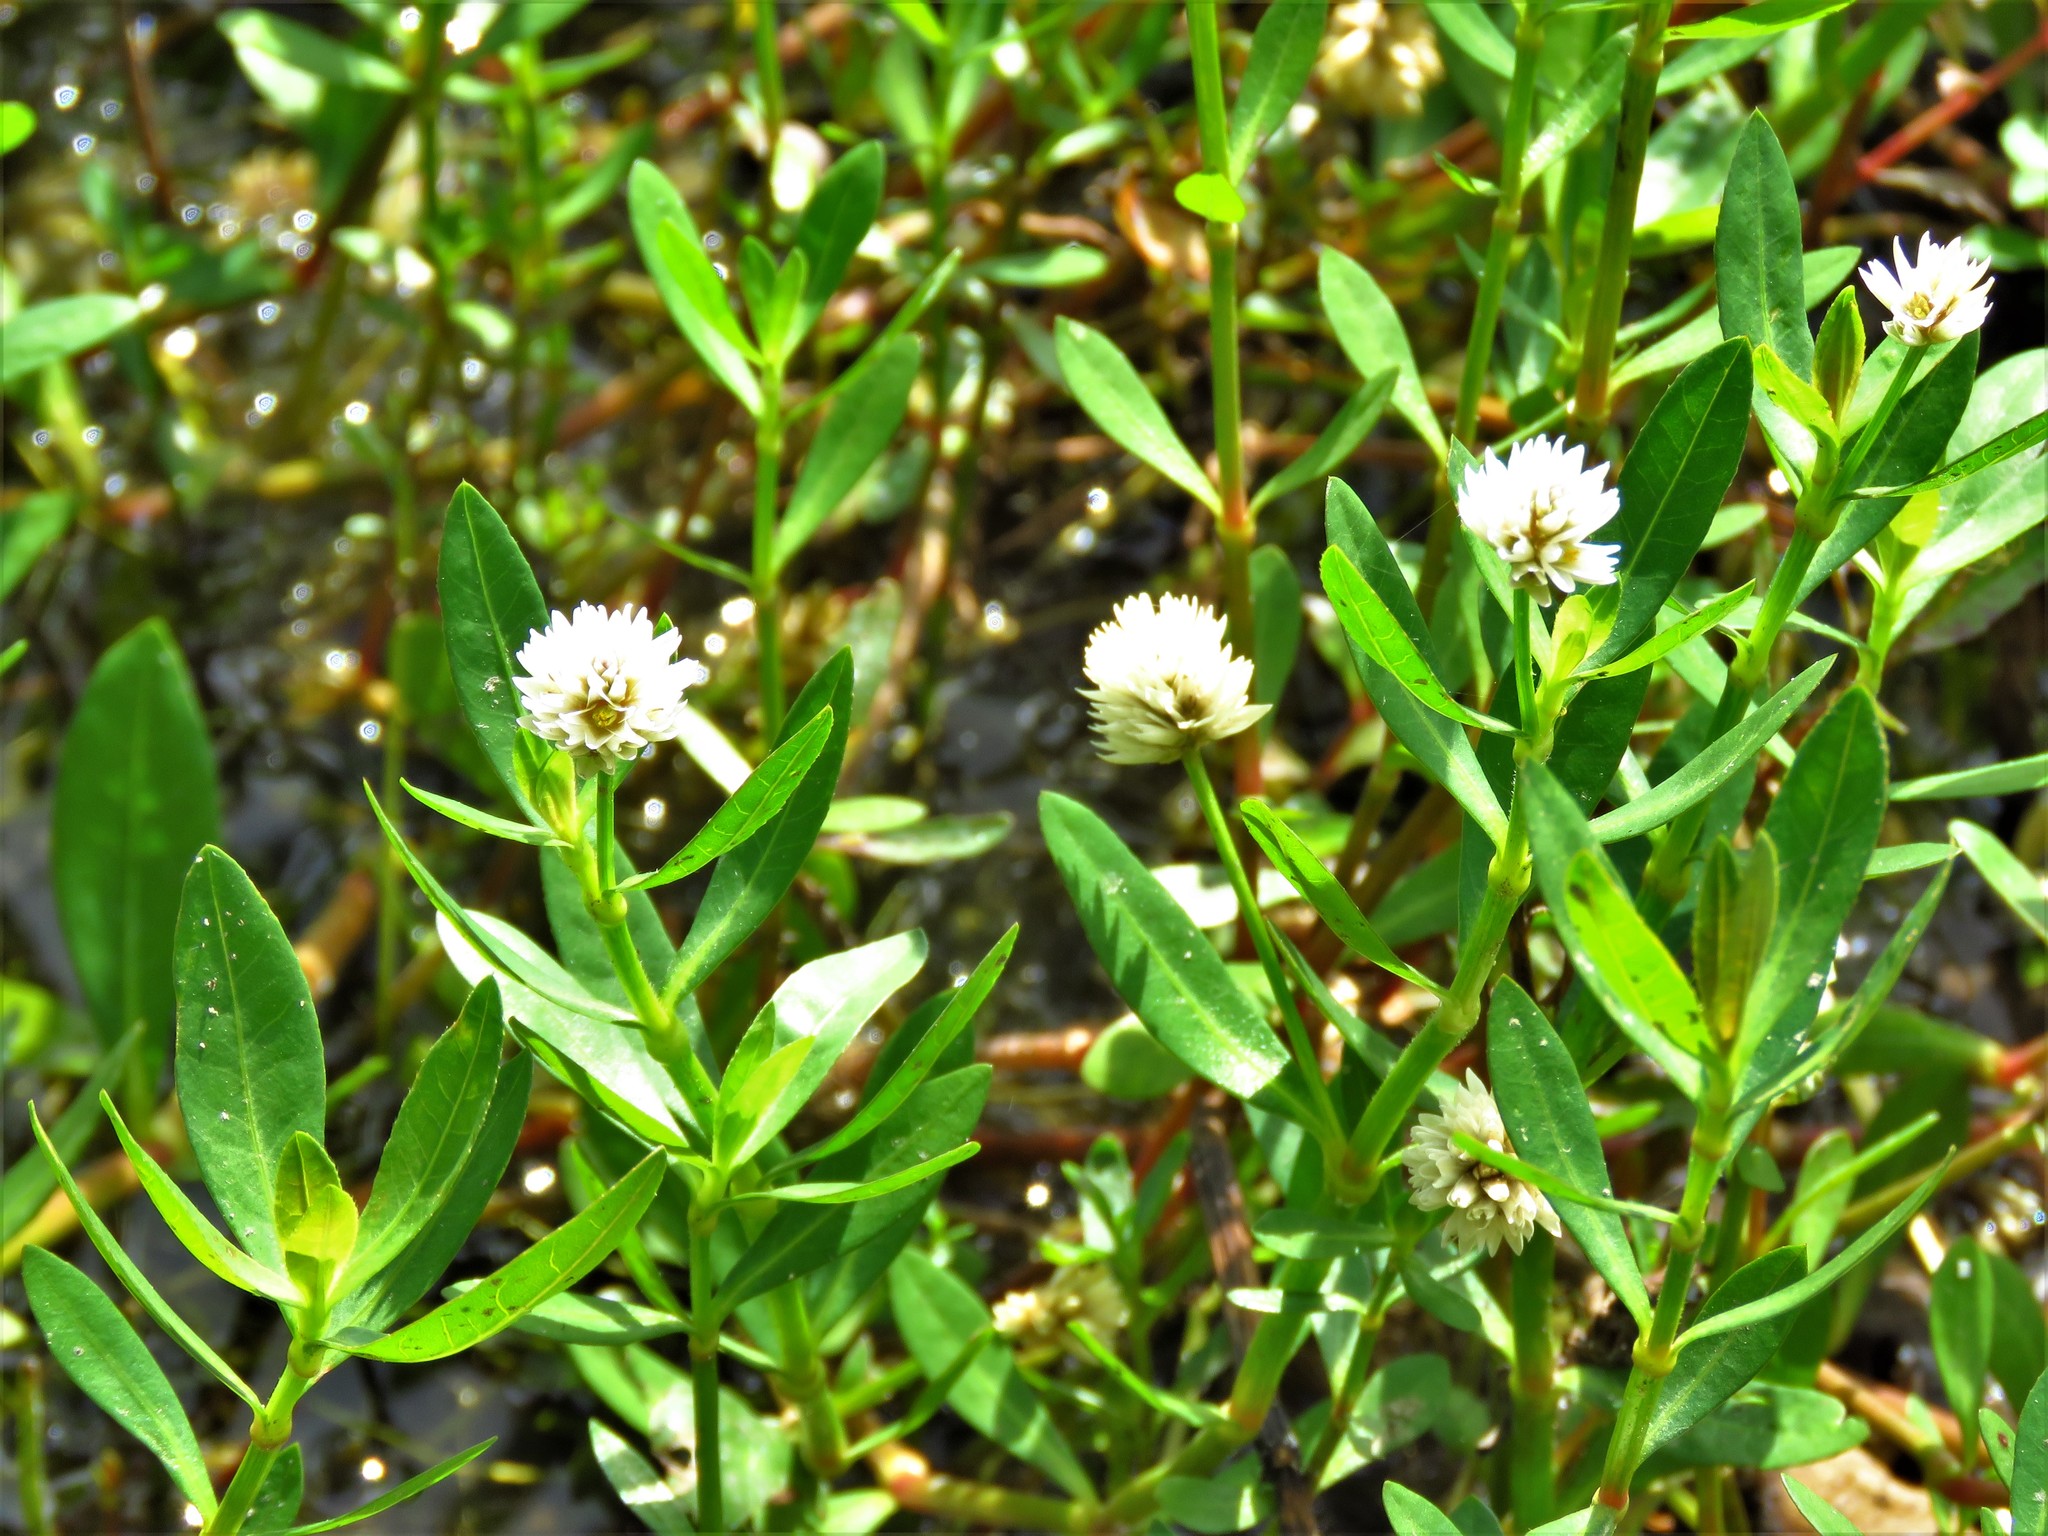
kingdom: Plantae
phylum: Tracheophyta
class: Magnoliopsida
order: Caryophyllales
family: Amaranthaceae
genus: Alternanthera
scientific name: Alternanthera philoxeroides
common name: Alligatorweed
